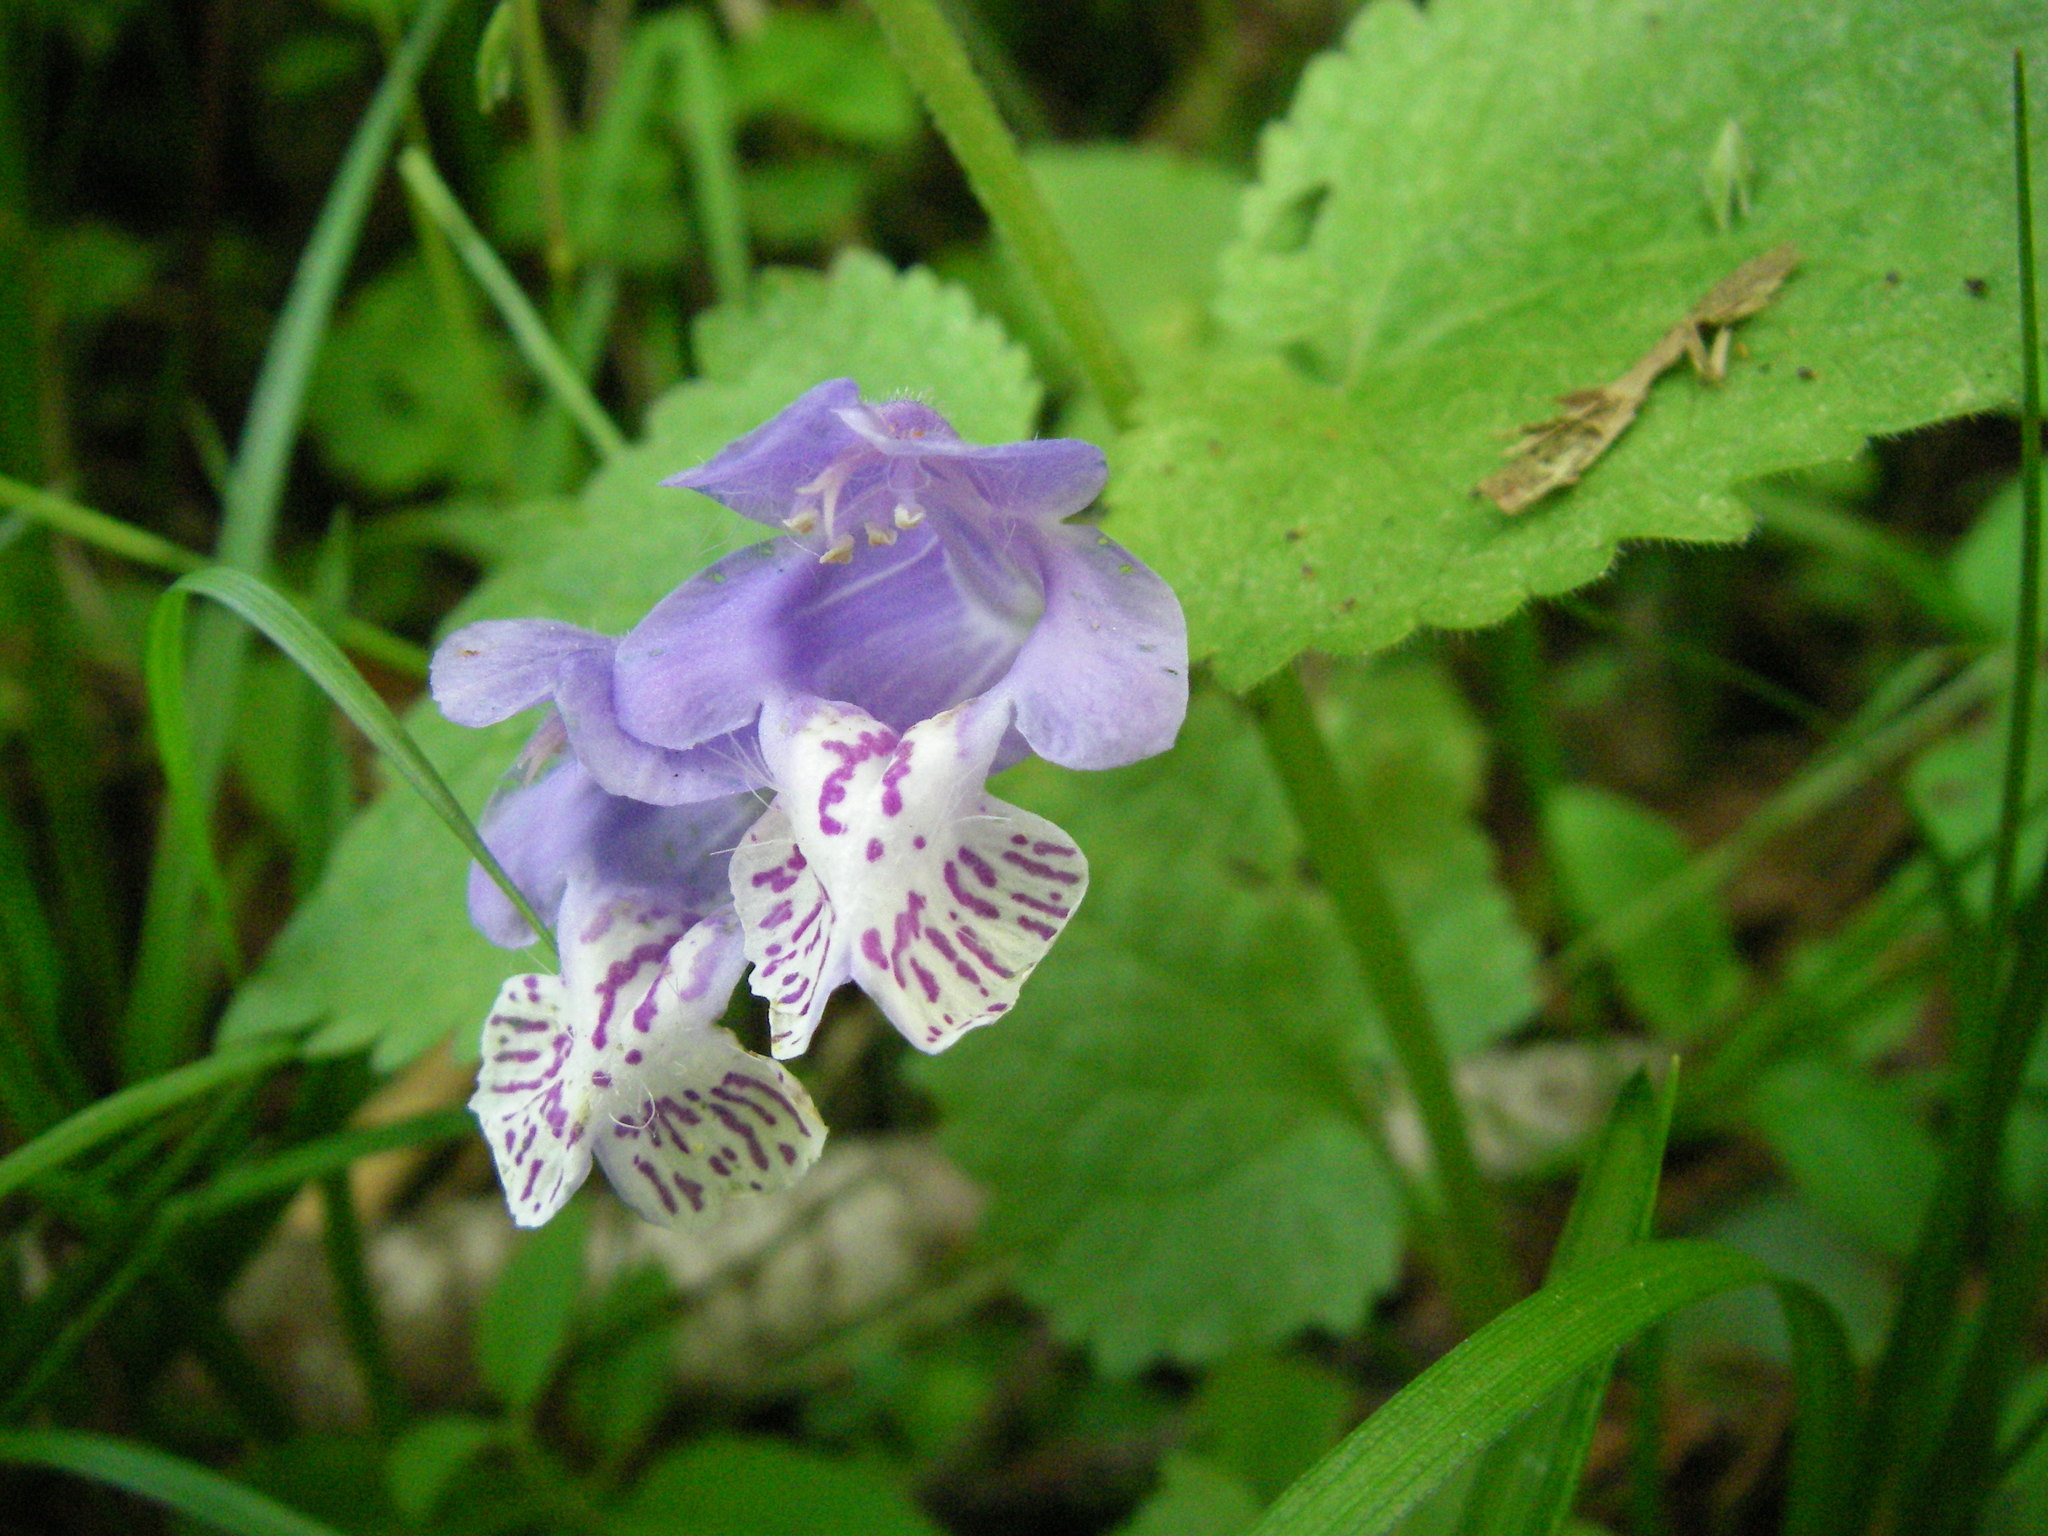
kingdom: Plantae
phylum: Tracheophyta
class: Magnoliopsida
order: Lamiales
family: Lamiaceae
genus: Meehania
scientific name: Meehania urticifolia
